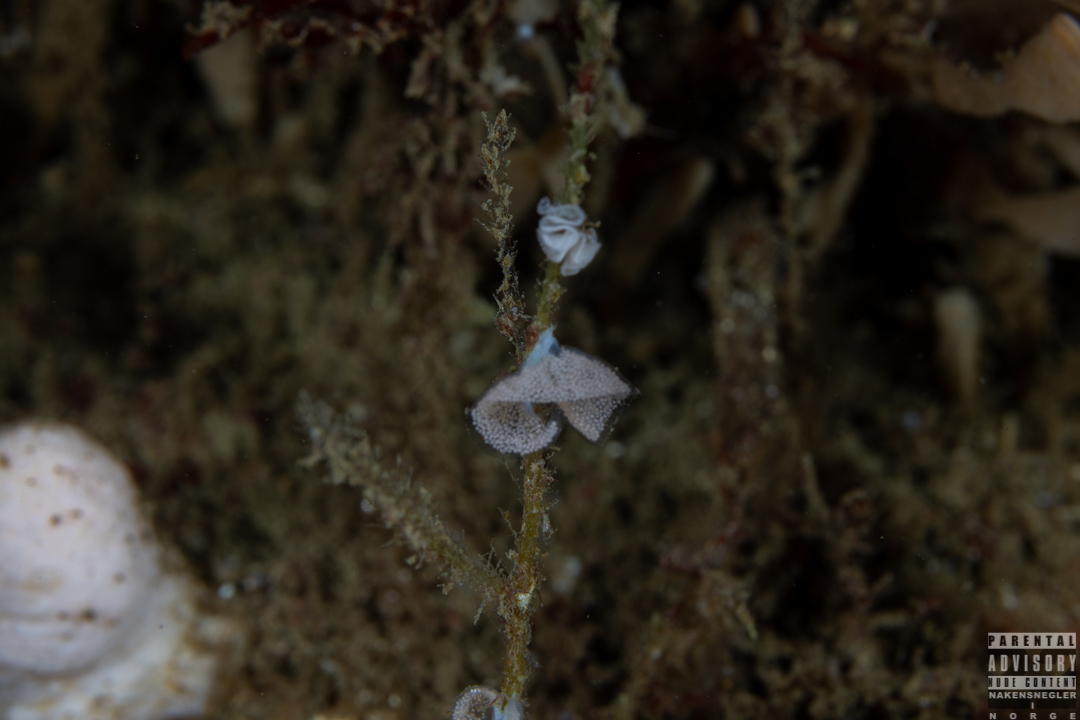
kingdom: Animalia
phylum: Mollusca
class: Gastropoda
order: Nudibranchia
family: Eubranchidae
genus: Eubranchus
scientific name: Eubranchus tricolor
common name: Painted balloon aeolis
